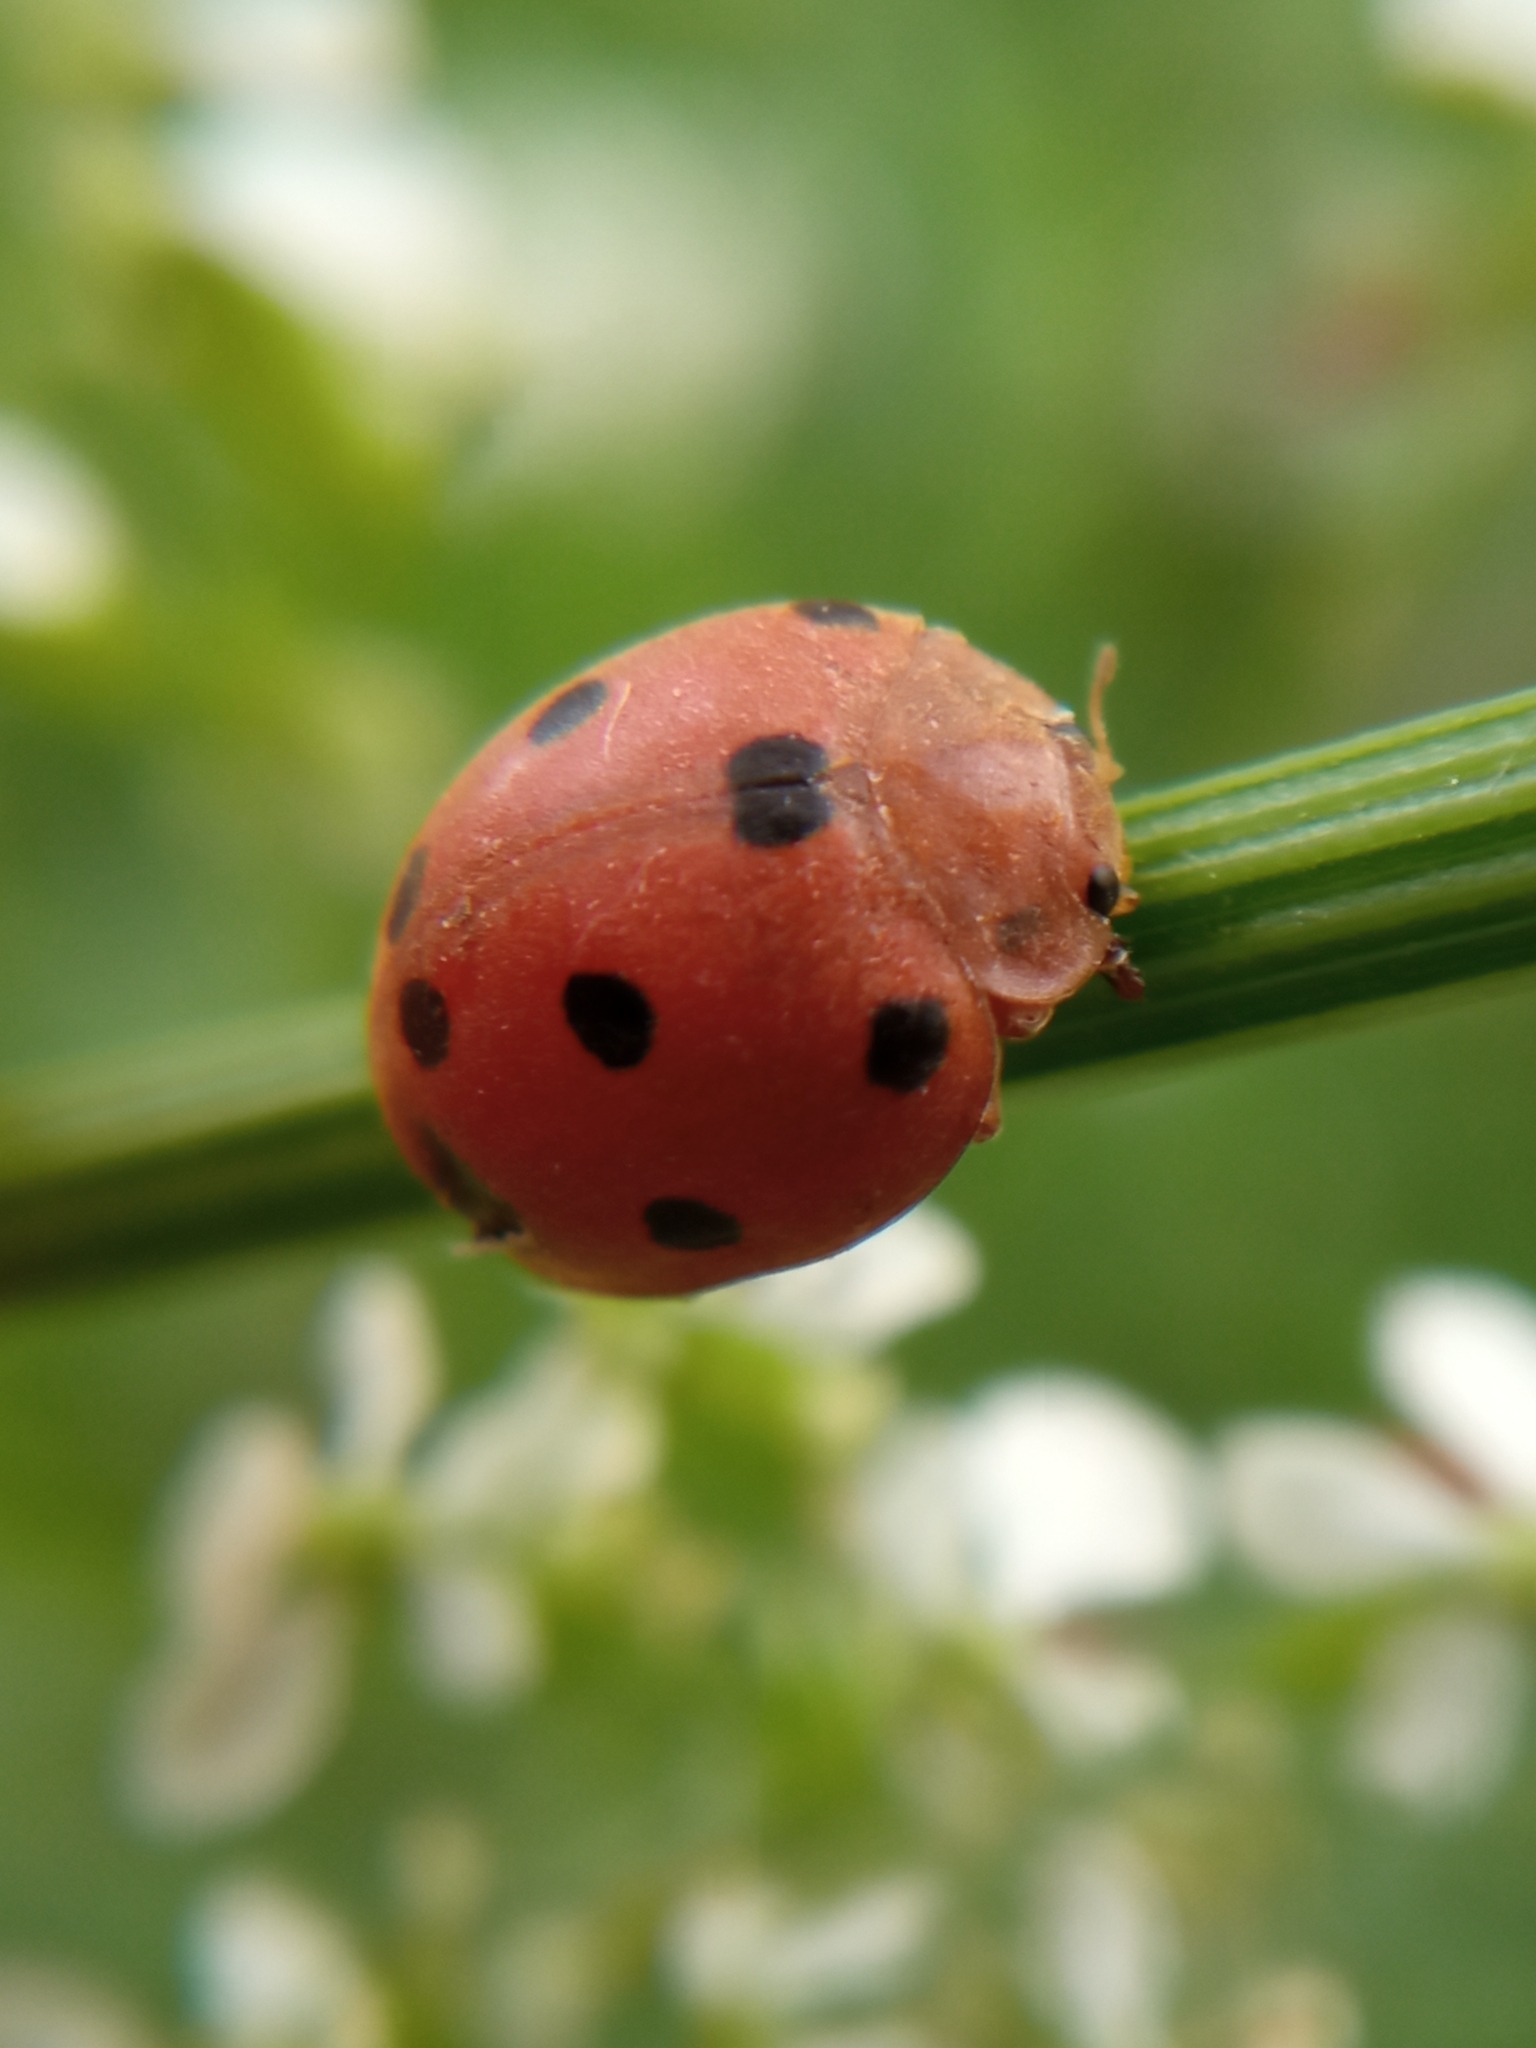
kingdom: Animalia
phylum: Arthropoda
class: Insecta
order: Coleoptera
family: Coccinellidae
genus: Henosepilachna
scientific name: Henosepilachna argus
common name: Bryony ladybird
